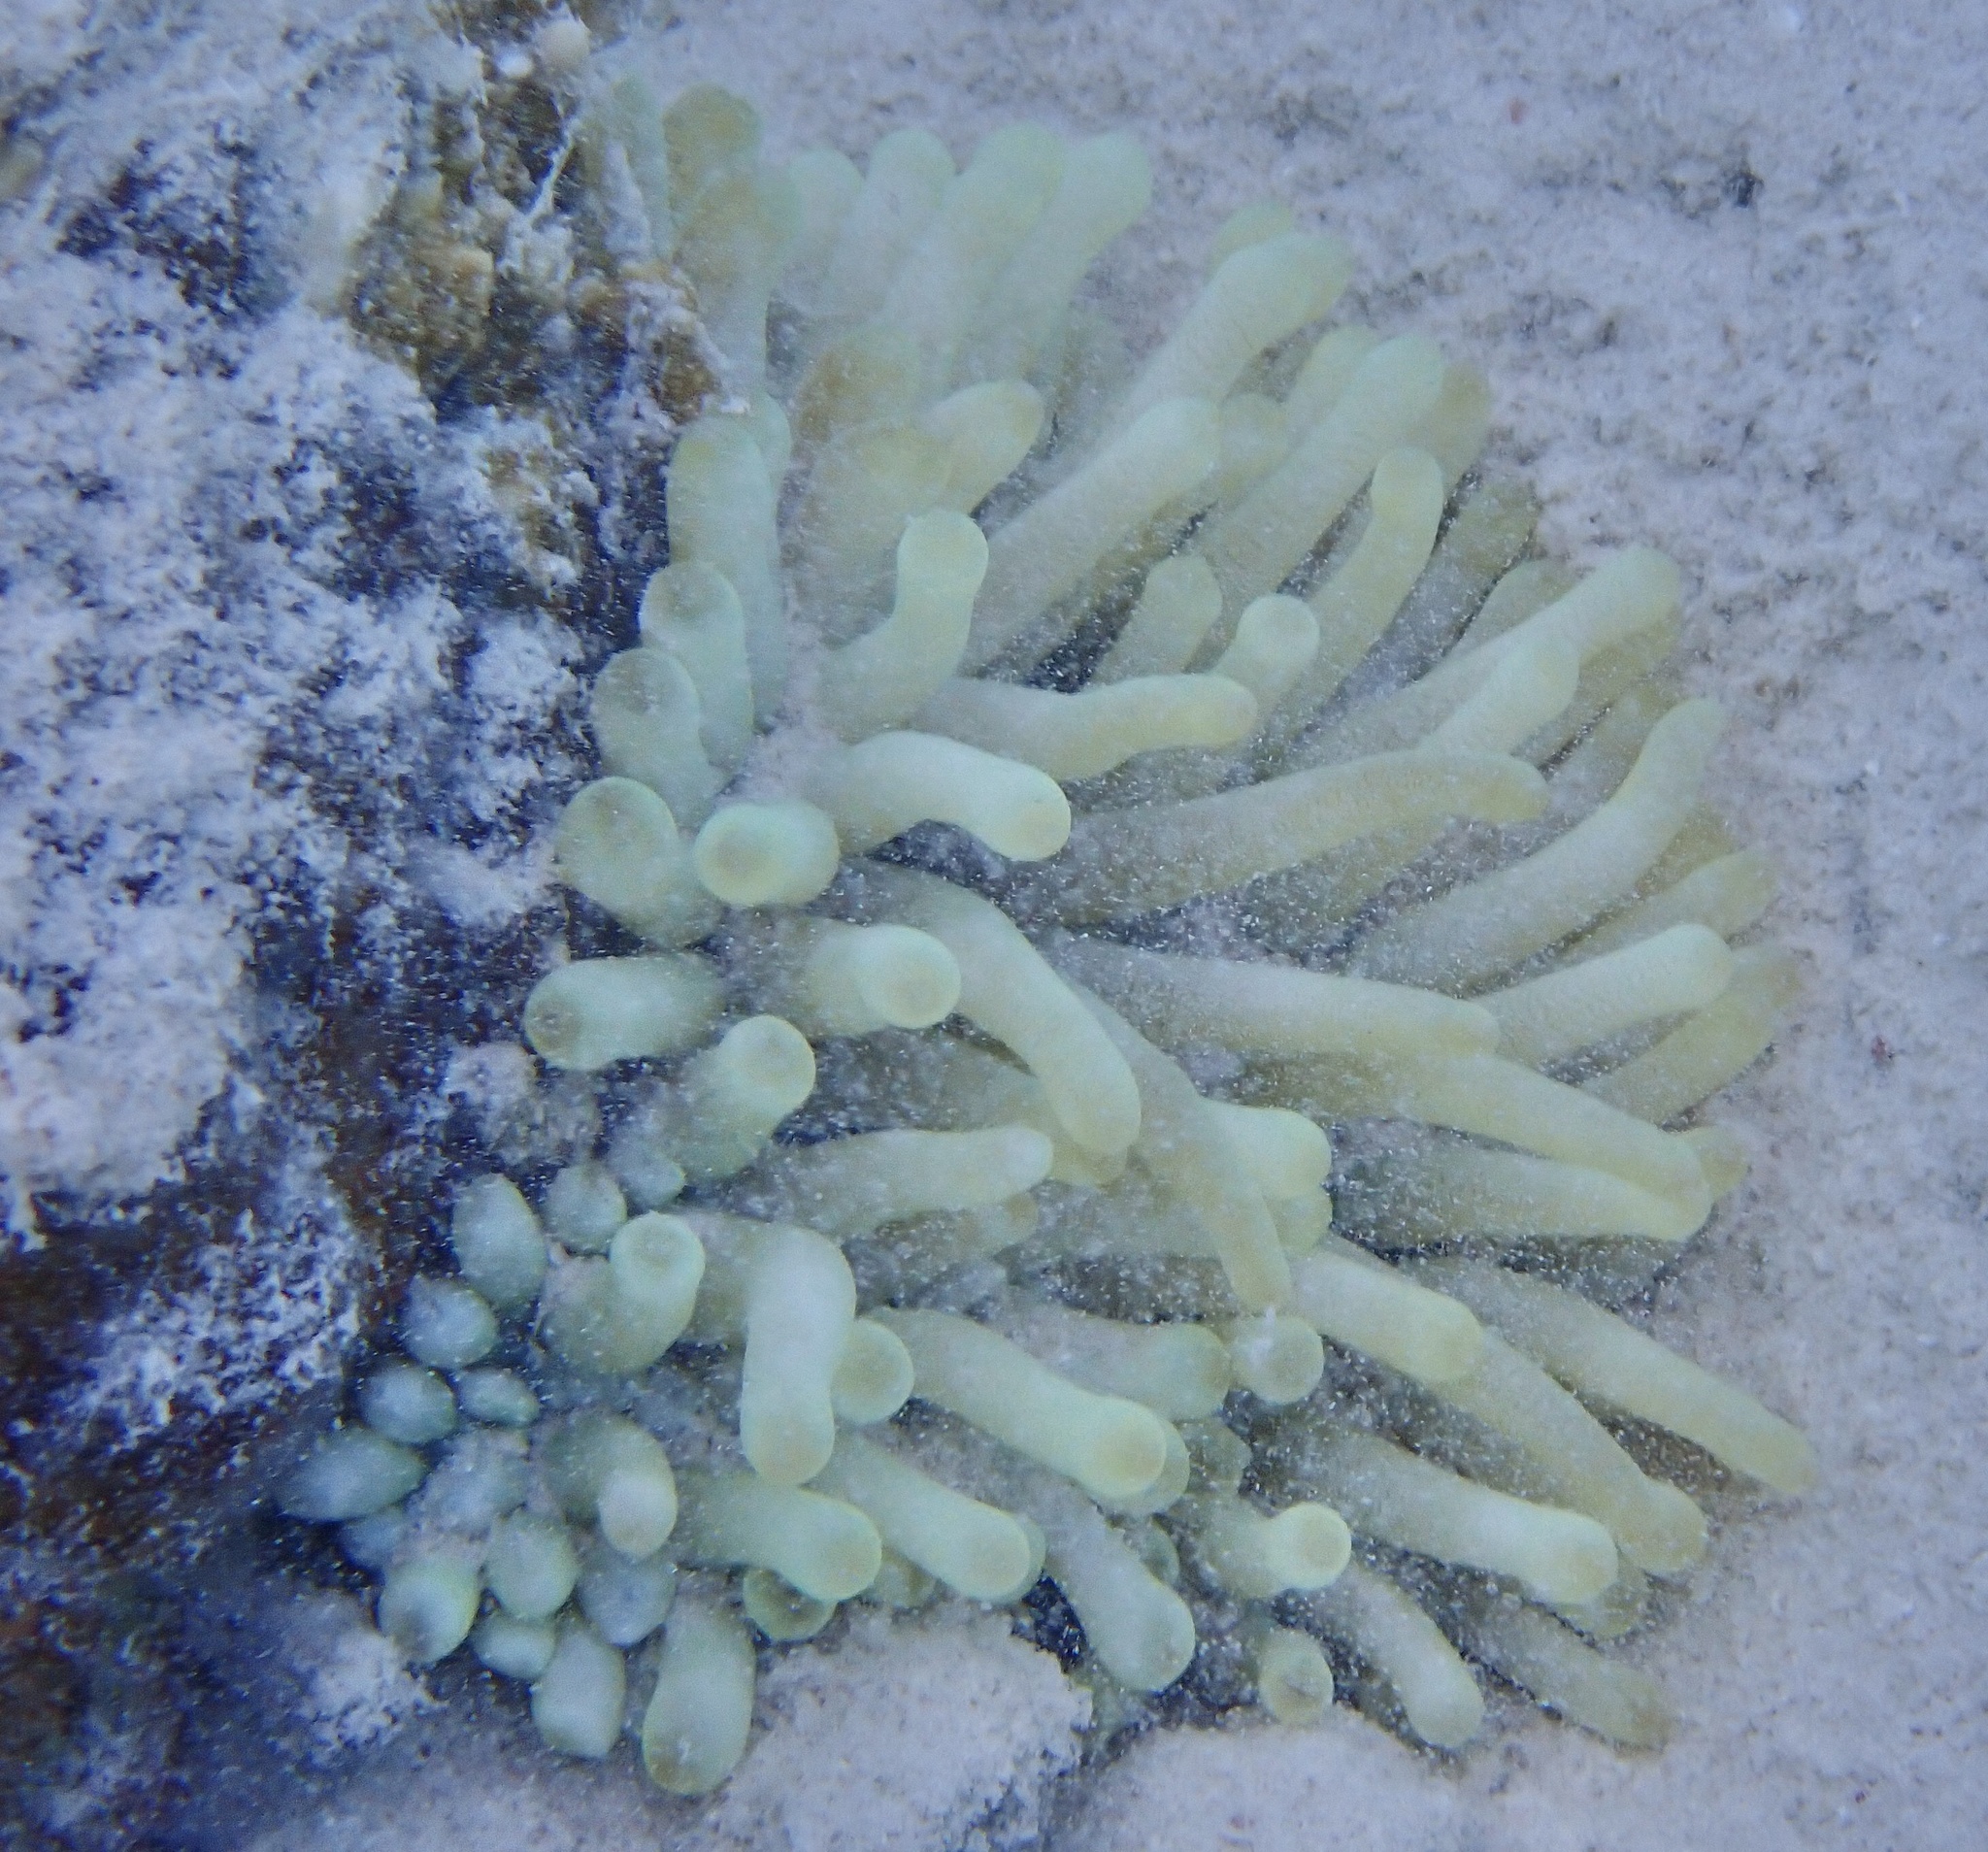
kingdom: Animalia
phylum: Cnidaria
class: Anthozoa
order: Actiniaria
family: Actiniidae
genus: Condylactis
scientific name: Condylactis gigantea
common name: Giant caribbean anemone
